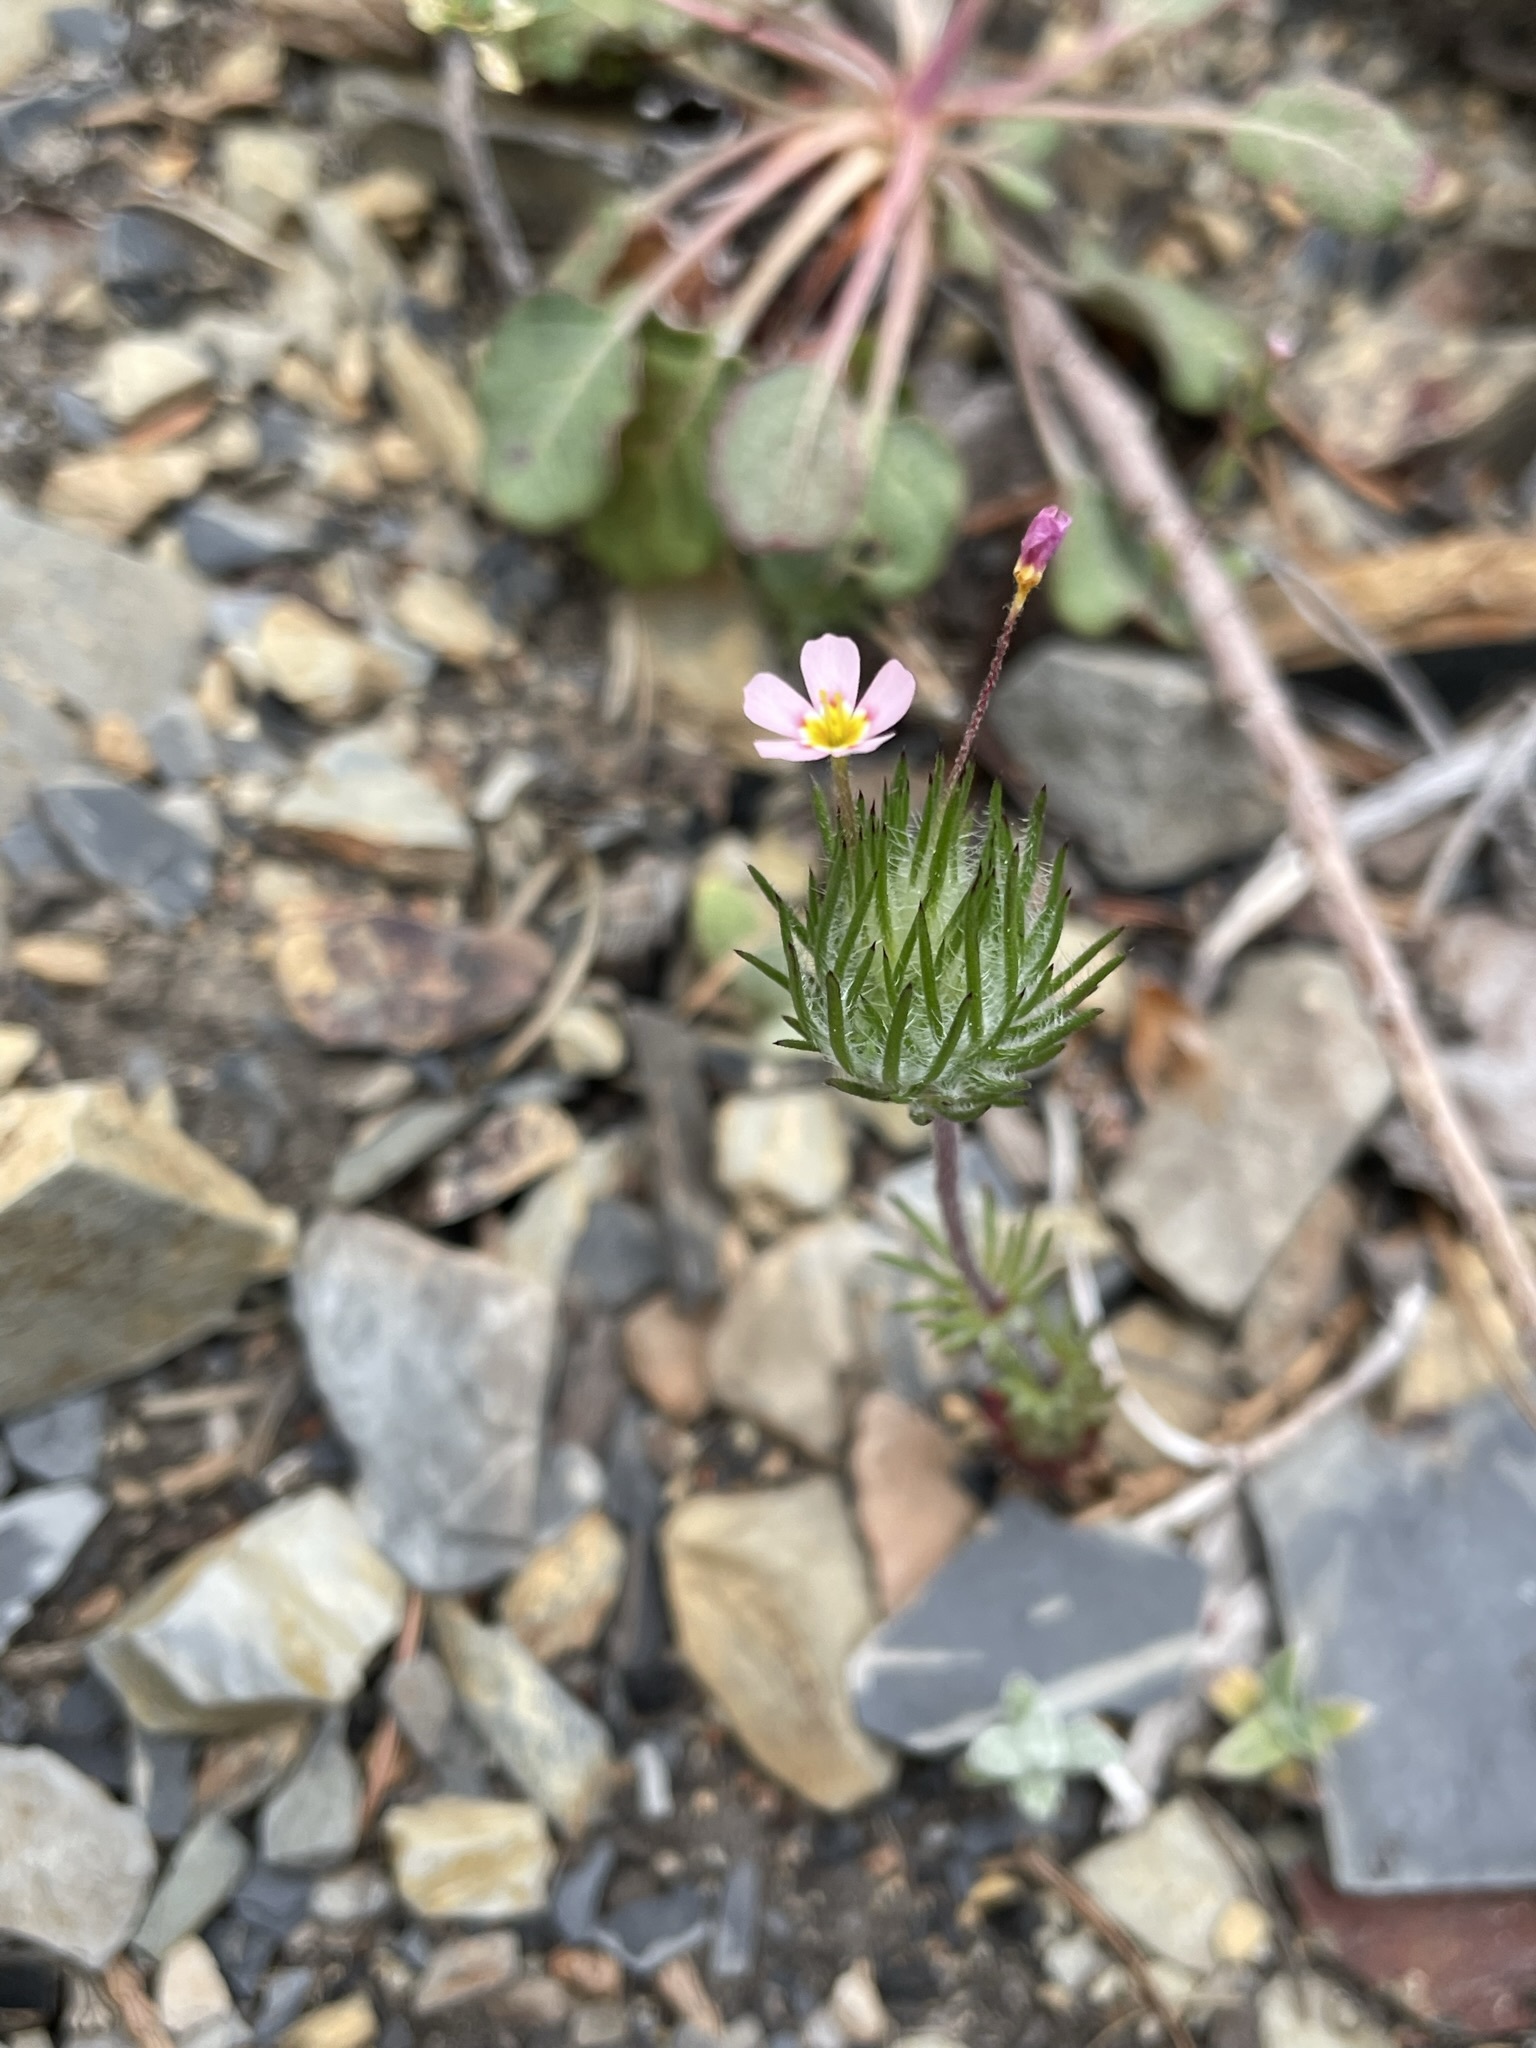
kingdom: Plantae
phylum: Tracheophyta
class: Magnoliopsida
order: Ericales
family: Polemoniaceae
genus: Leptosiphon
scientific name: Leptosiphon ciliatus
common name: Whiskerbrush
